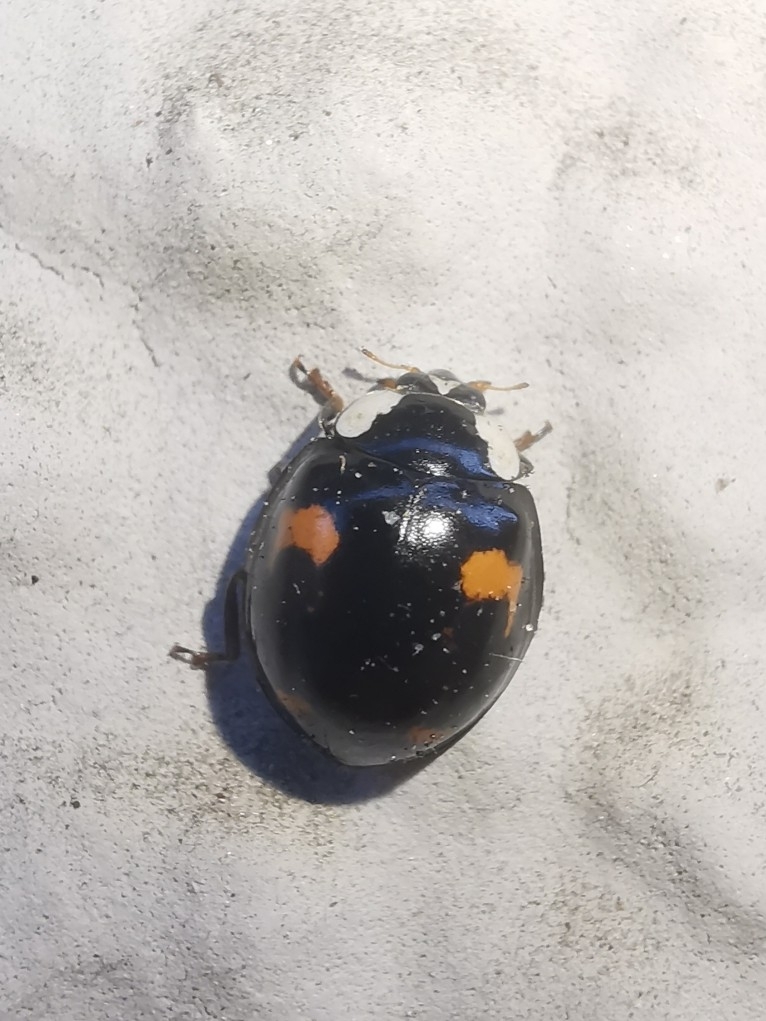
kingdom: Animalia
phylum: Arthropoda
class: Insecta
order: Coleoptera
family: Coccinellidae
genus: Harmonia
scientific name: Harmonia axyridis
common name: Harlequin ladybird
